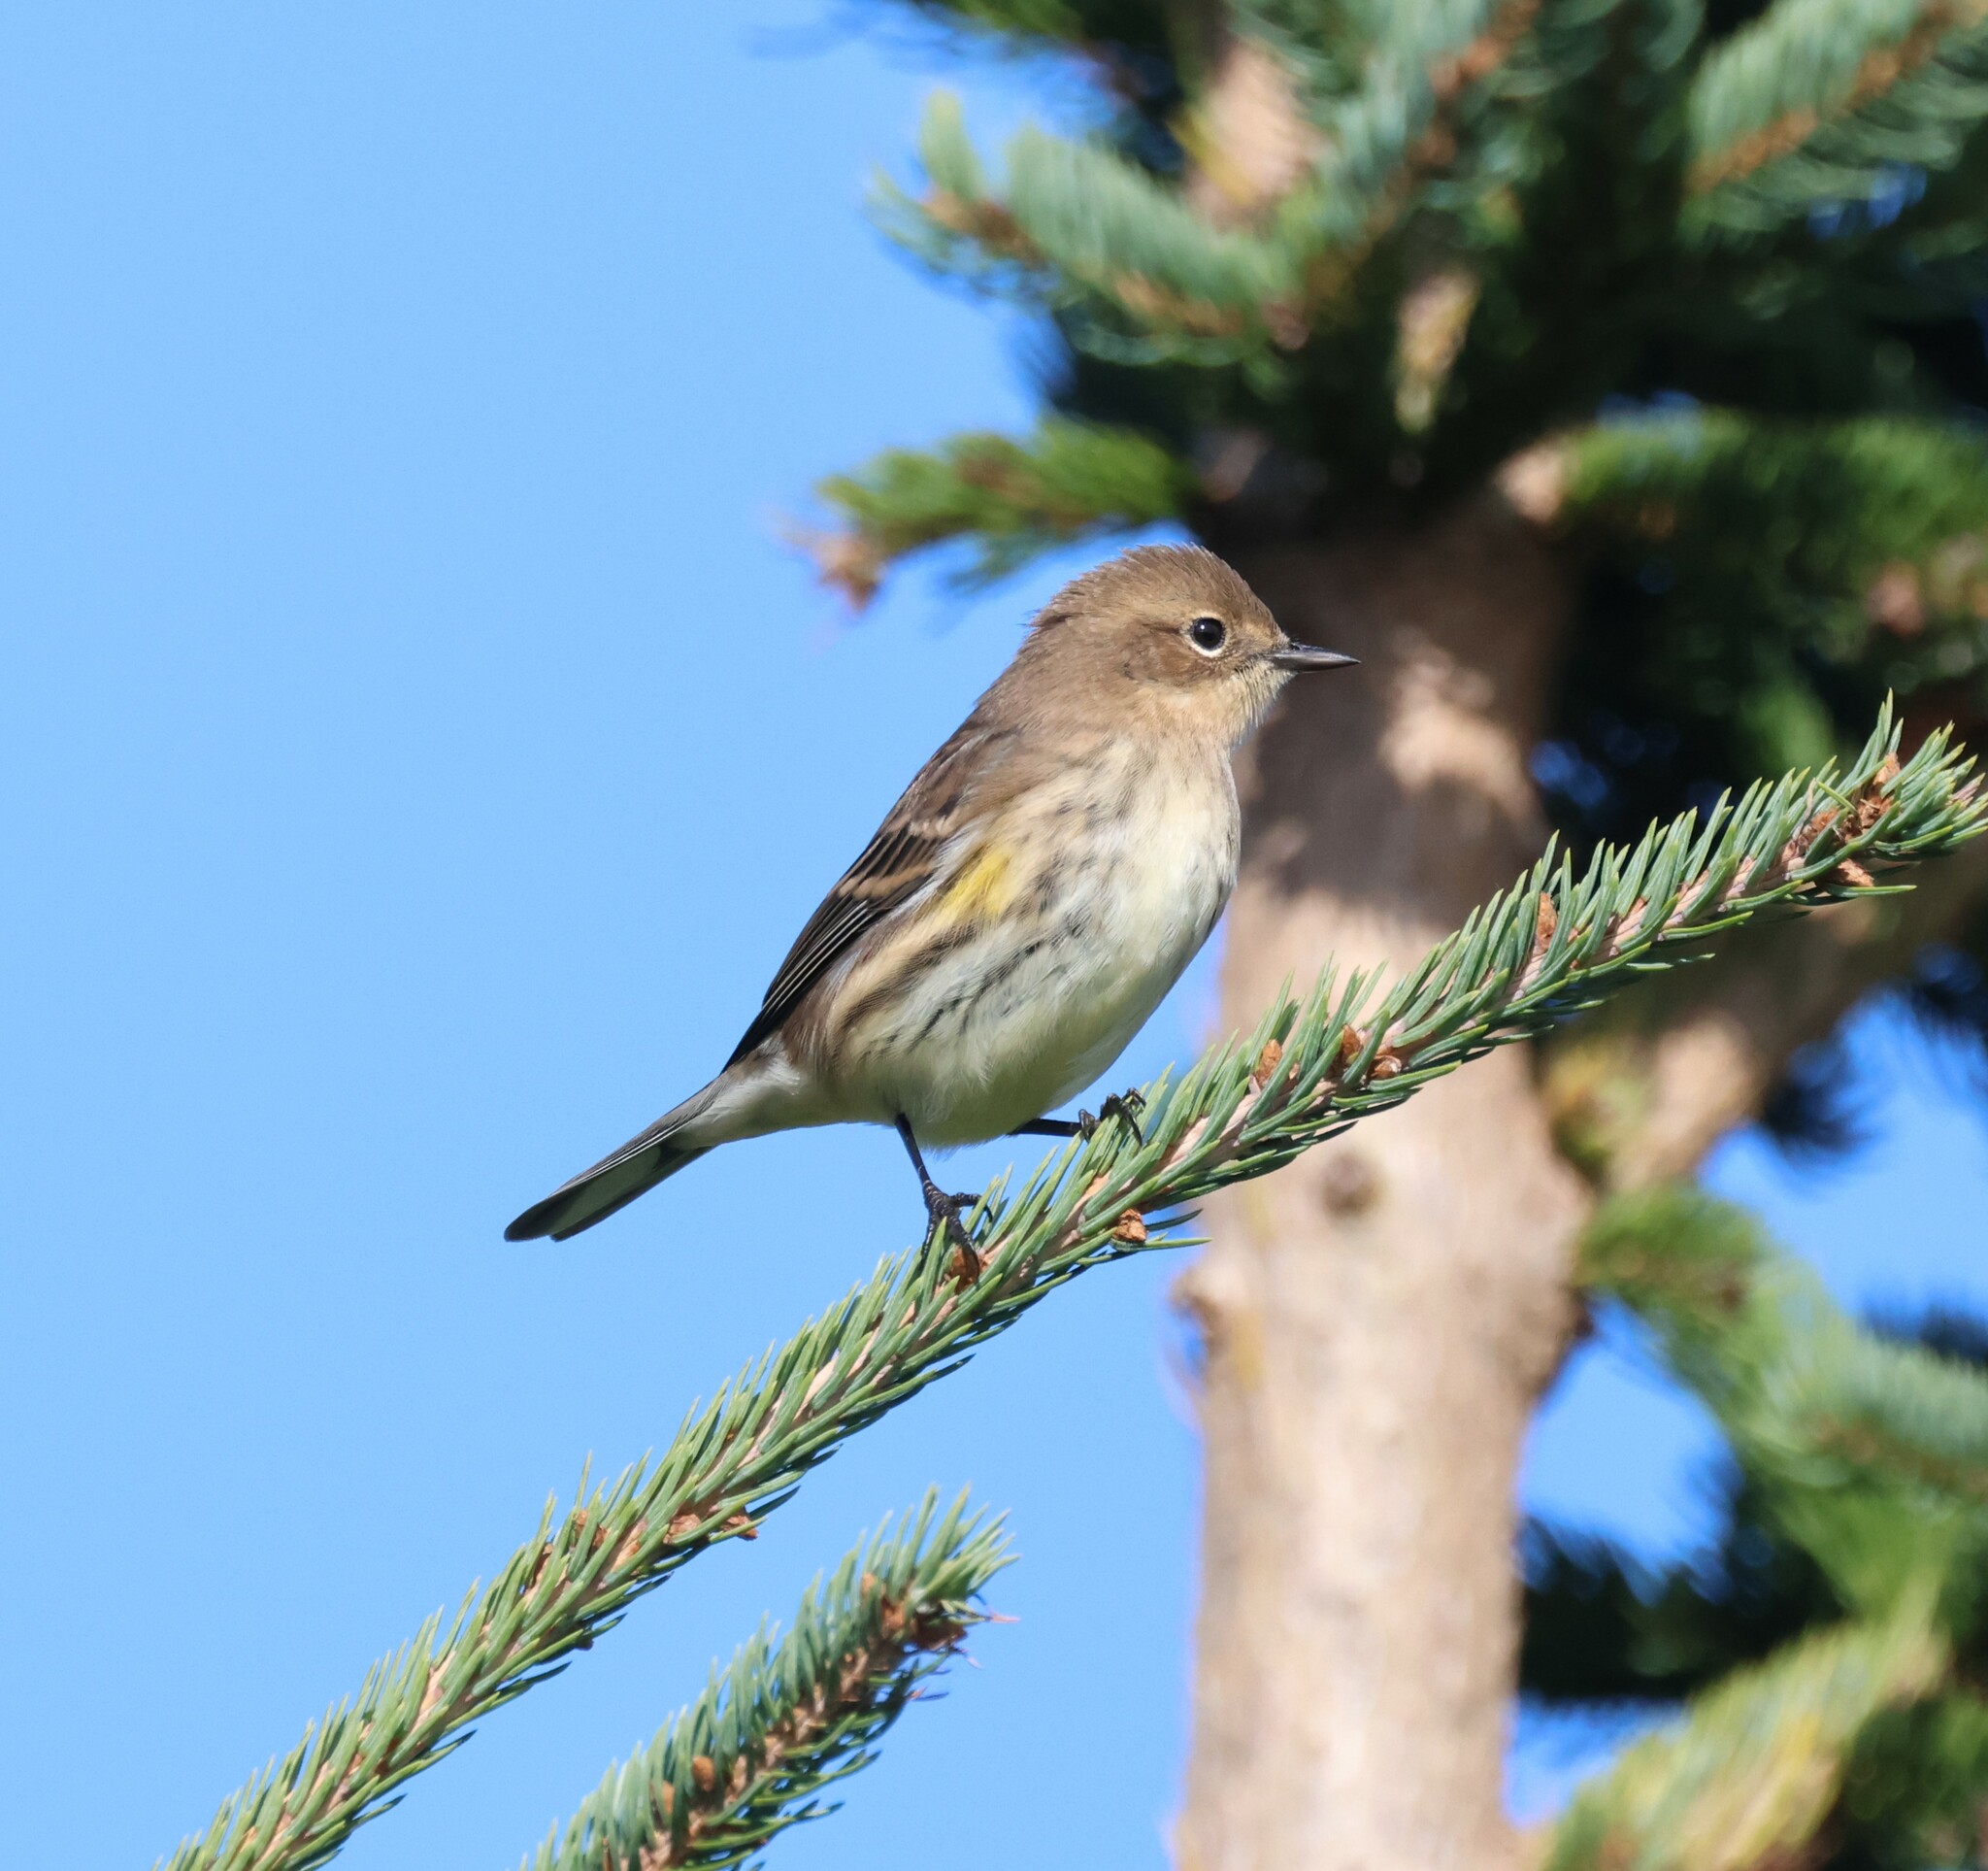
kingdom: Animalia
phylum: Chordata
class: Aves
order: Passeriformes
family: Parulidae
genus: Setophaga
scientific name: Setophaga coronata
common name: Myrtle warbler
